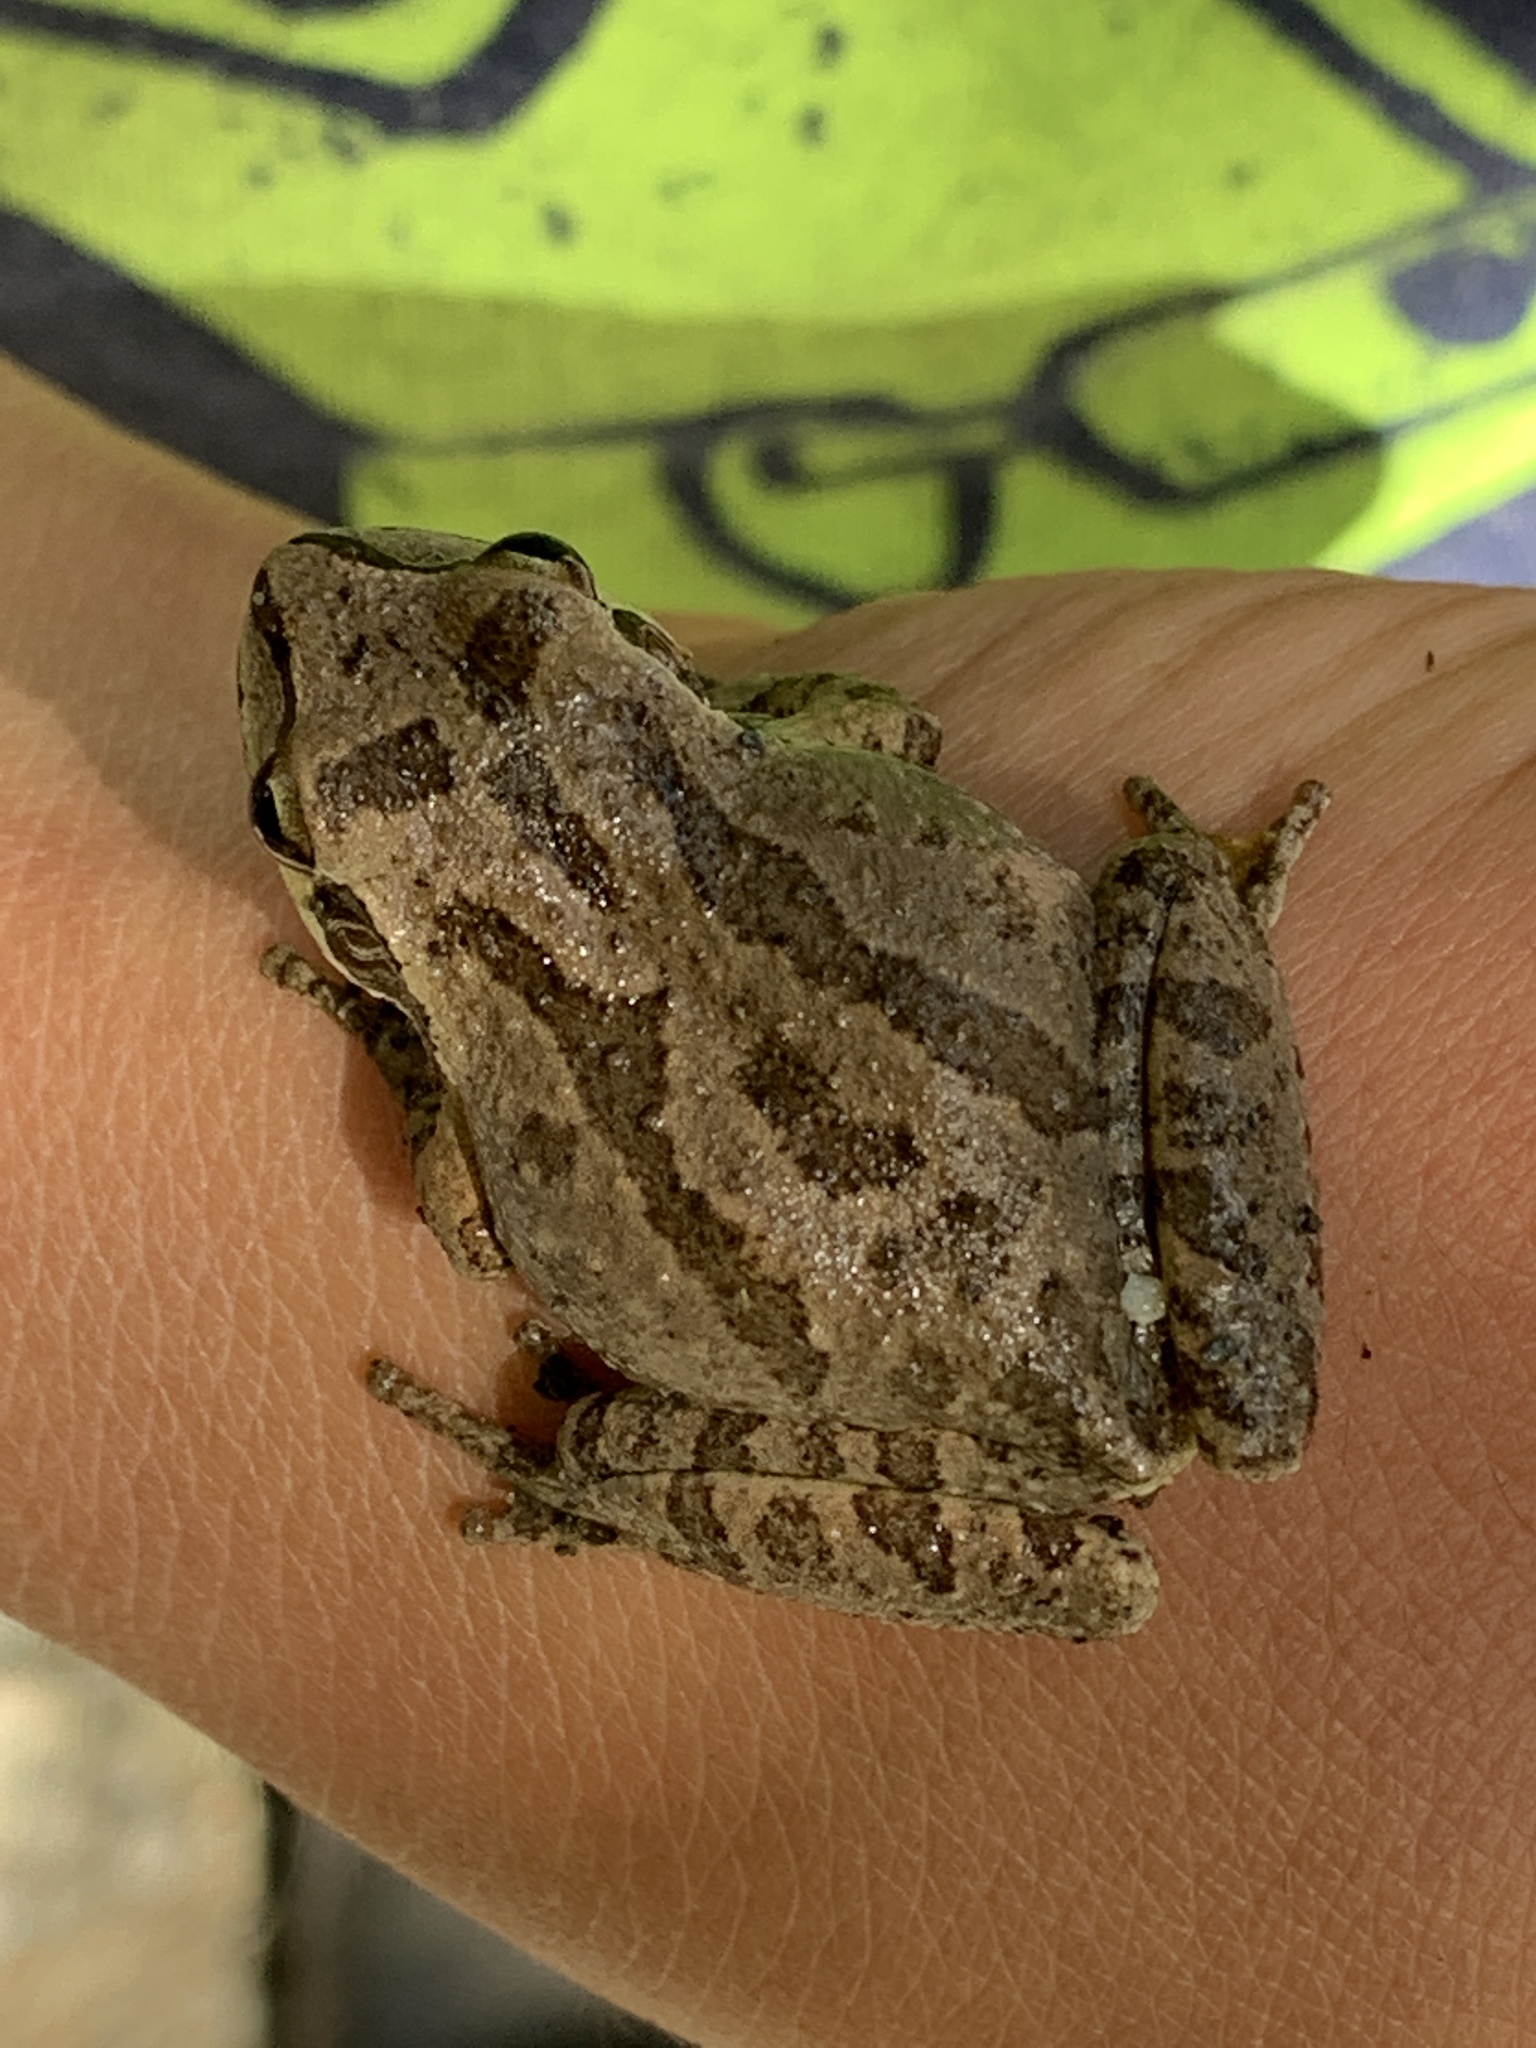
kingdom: Animalia
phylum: Chordata
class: Amphibia
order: Anura
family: Hylidae
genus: Pseudacris
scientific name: Pseudacris regilla
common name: Pacific chorus frog
